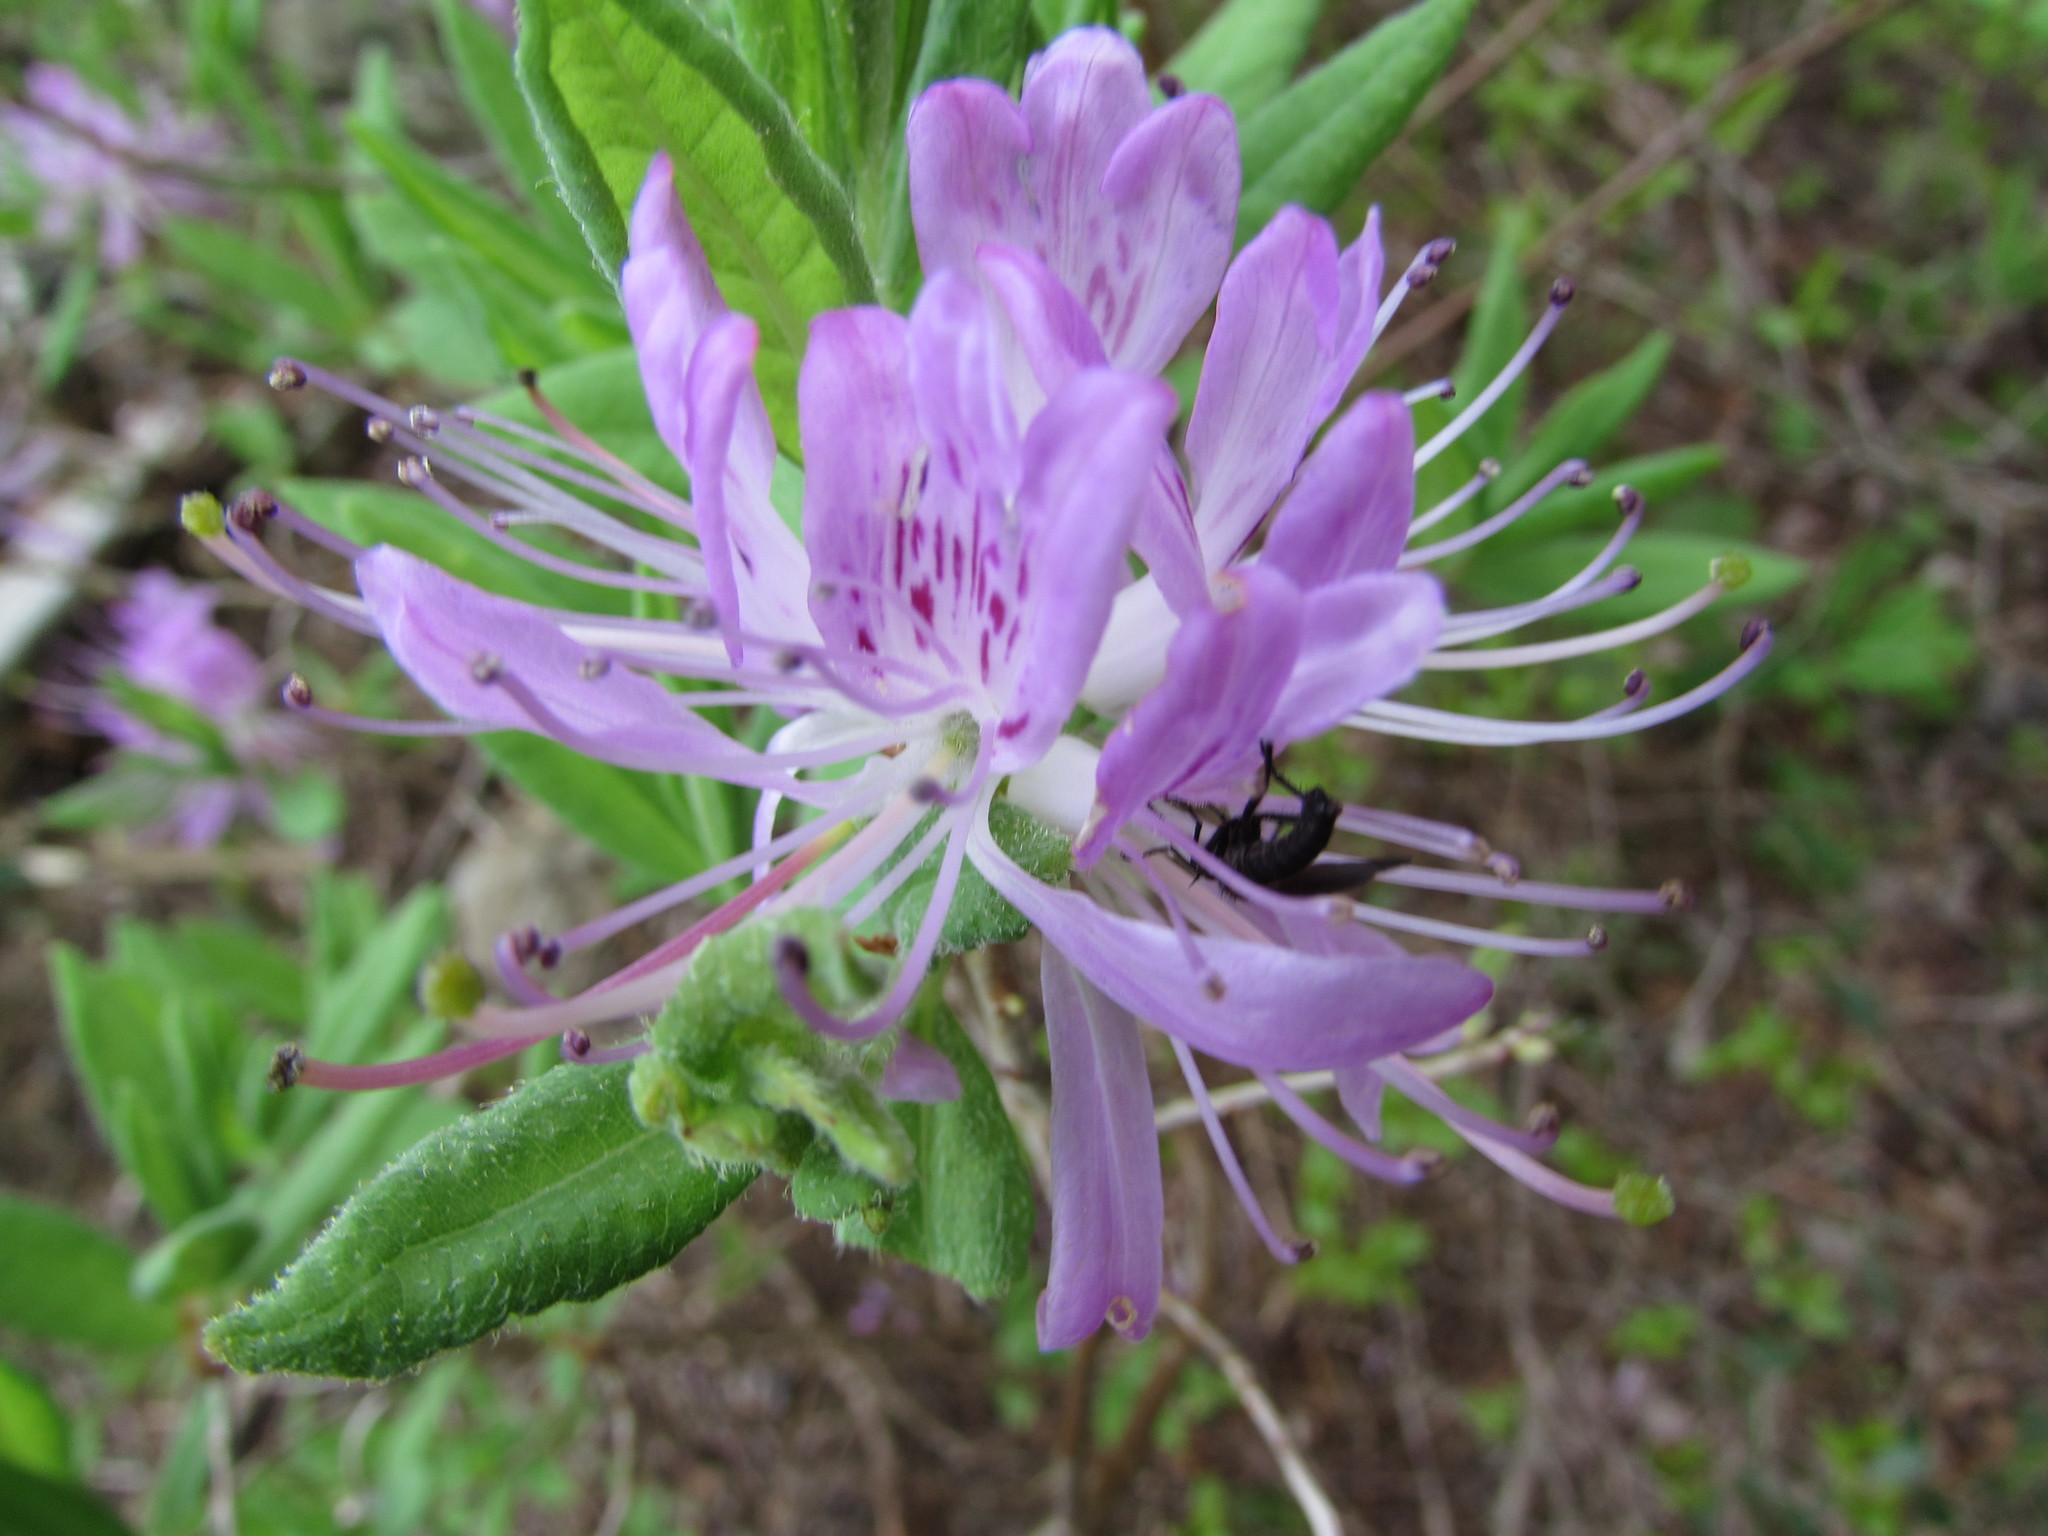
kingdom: Plantae
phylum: Tracheophyta
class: Magnoliopsida
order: Ericales
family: Ericaceae
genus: Rhododendron
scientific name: Rhododendron canadense
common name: Rhodora
